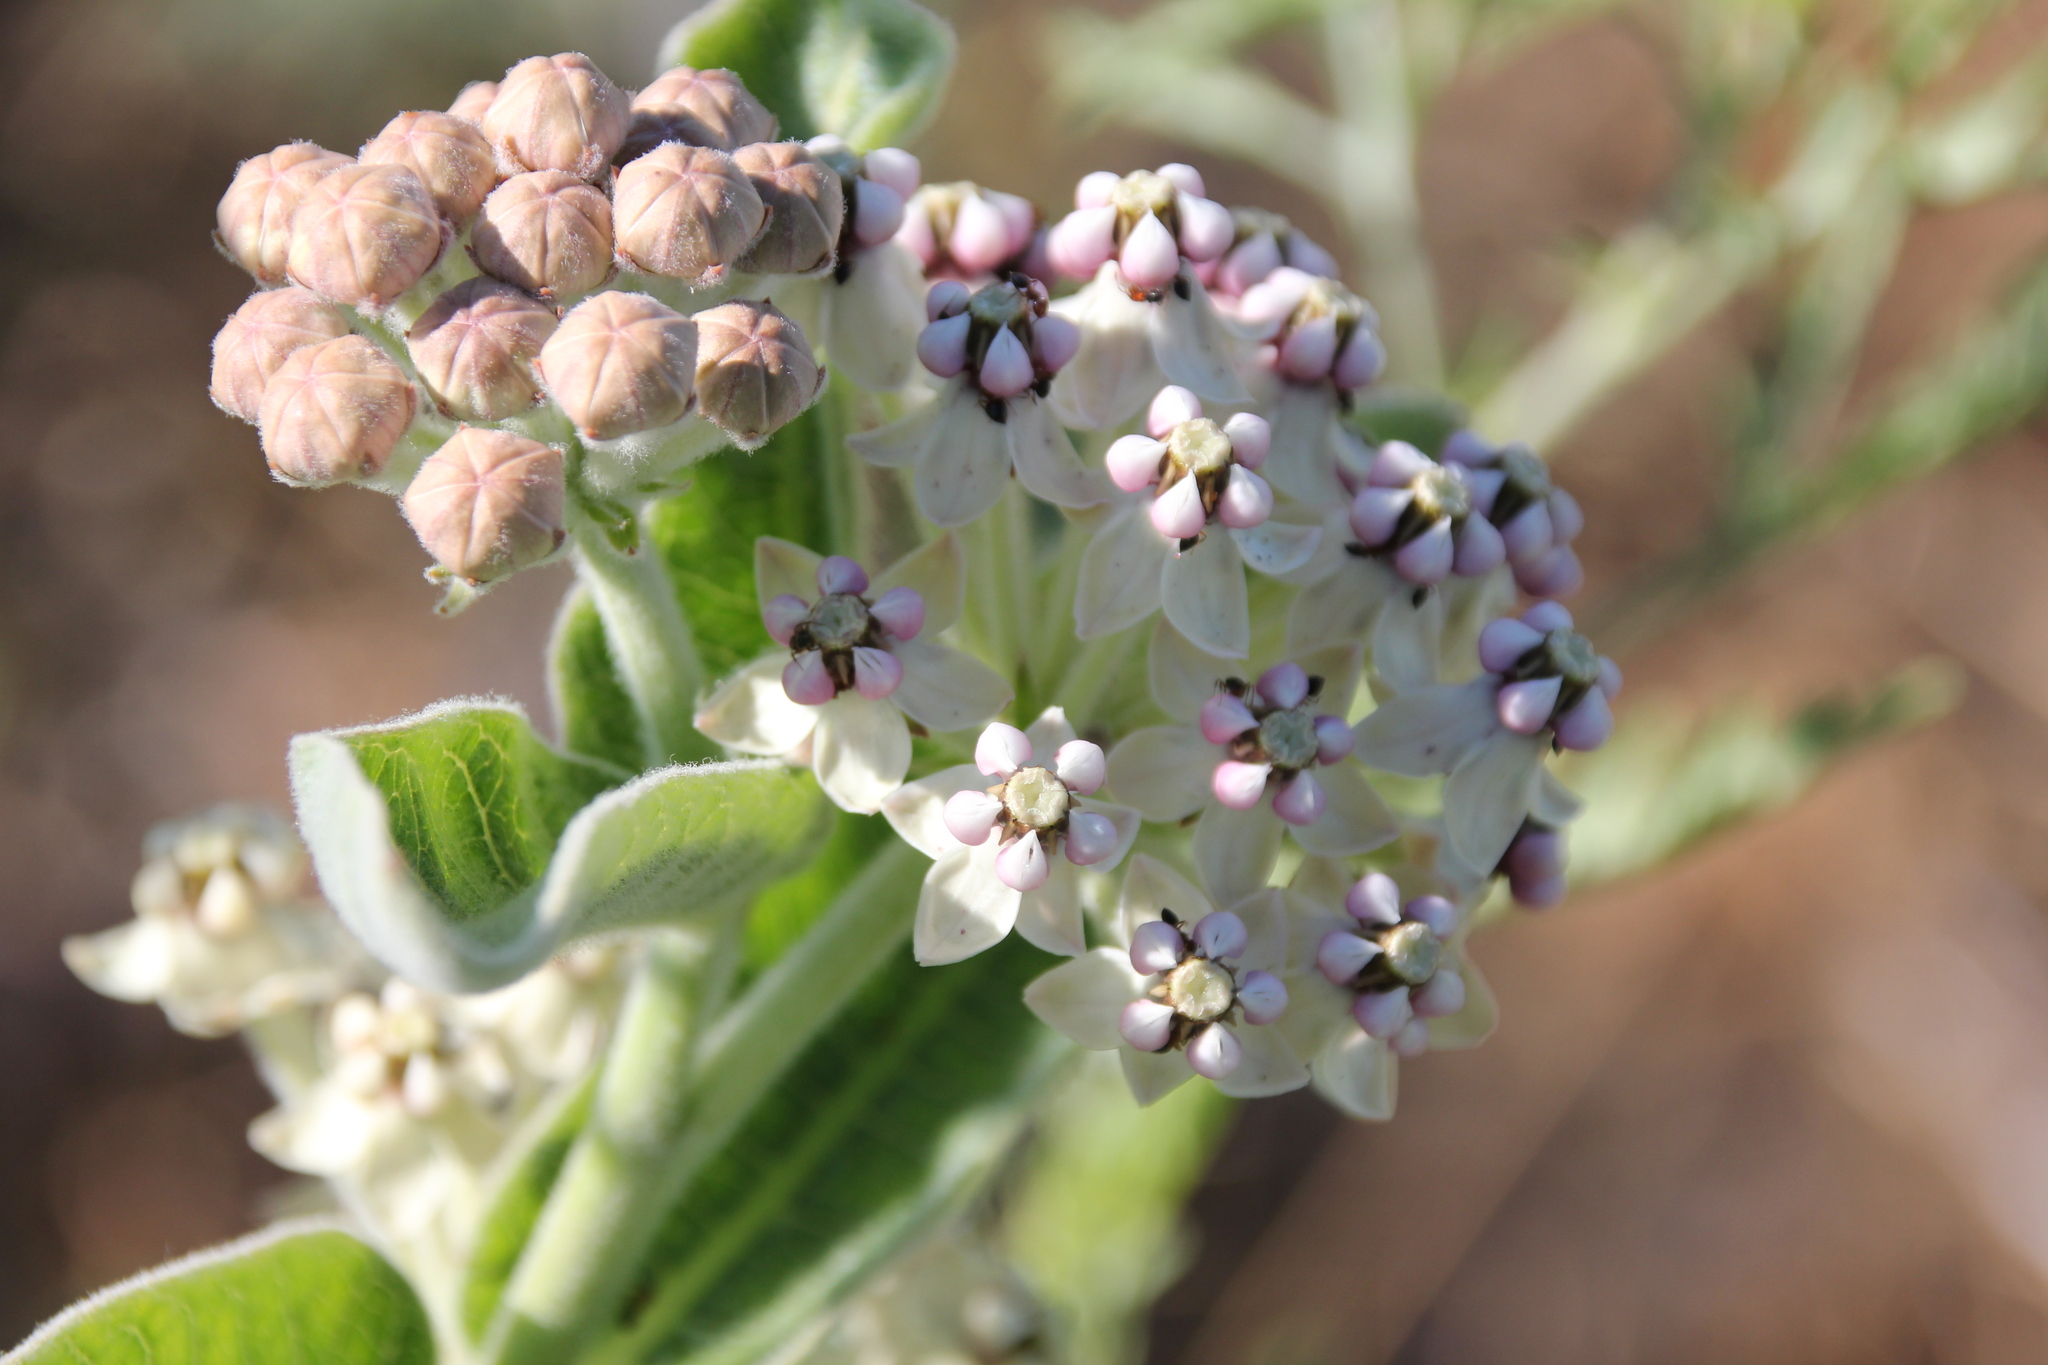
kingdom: Plantae
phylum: Tracheophyta
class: Magnoliopsida
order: Gentianales
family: Apocynaceae
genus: Asclepias
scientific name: Asclepias eriocarpa
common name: Indian milkweed
